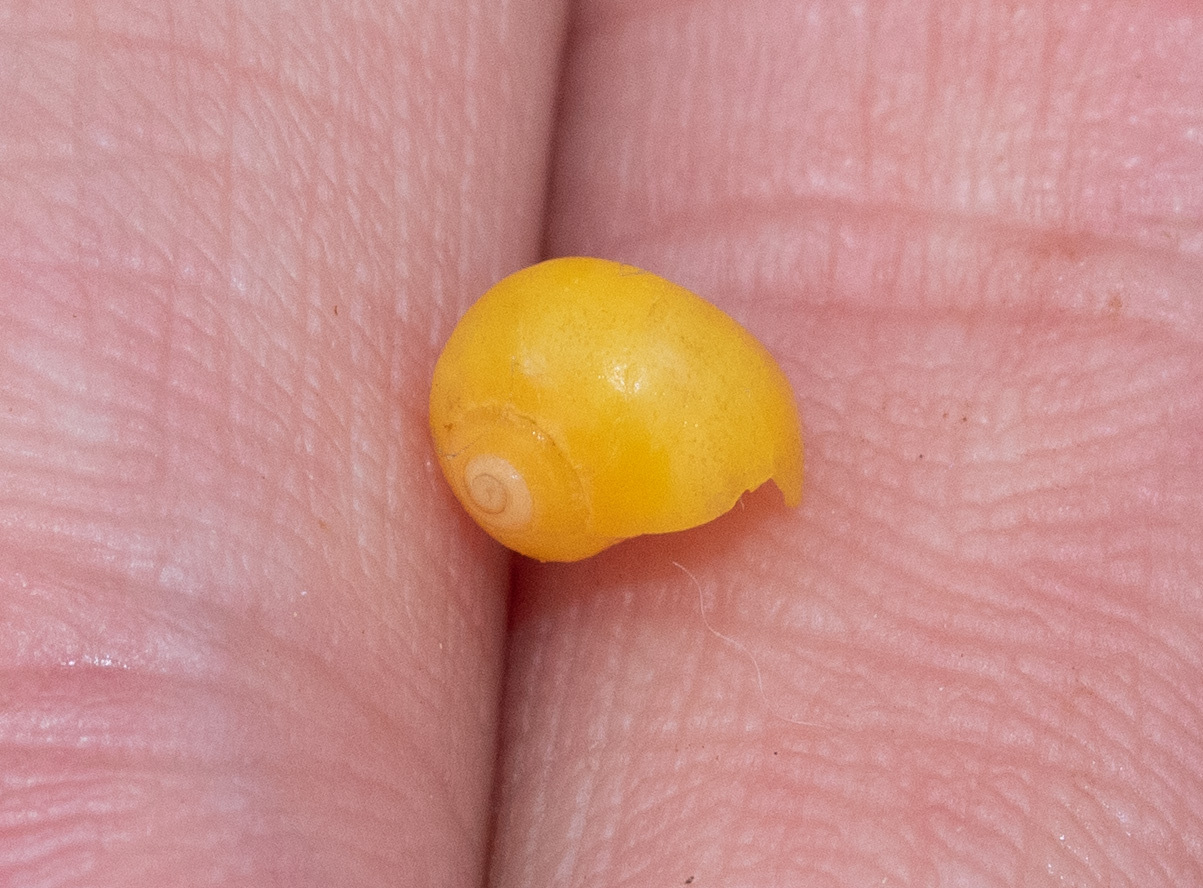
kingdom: Animalia
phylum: Mollusca
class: Gastropoda
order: Littorinimorpha
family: Littorinidae
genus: Littorina
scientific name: Littorina obtusata
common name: Flat periwinkle
